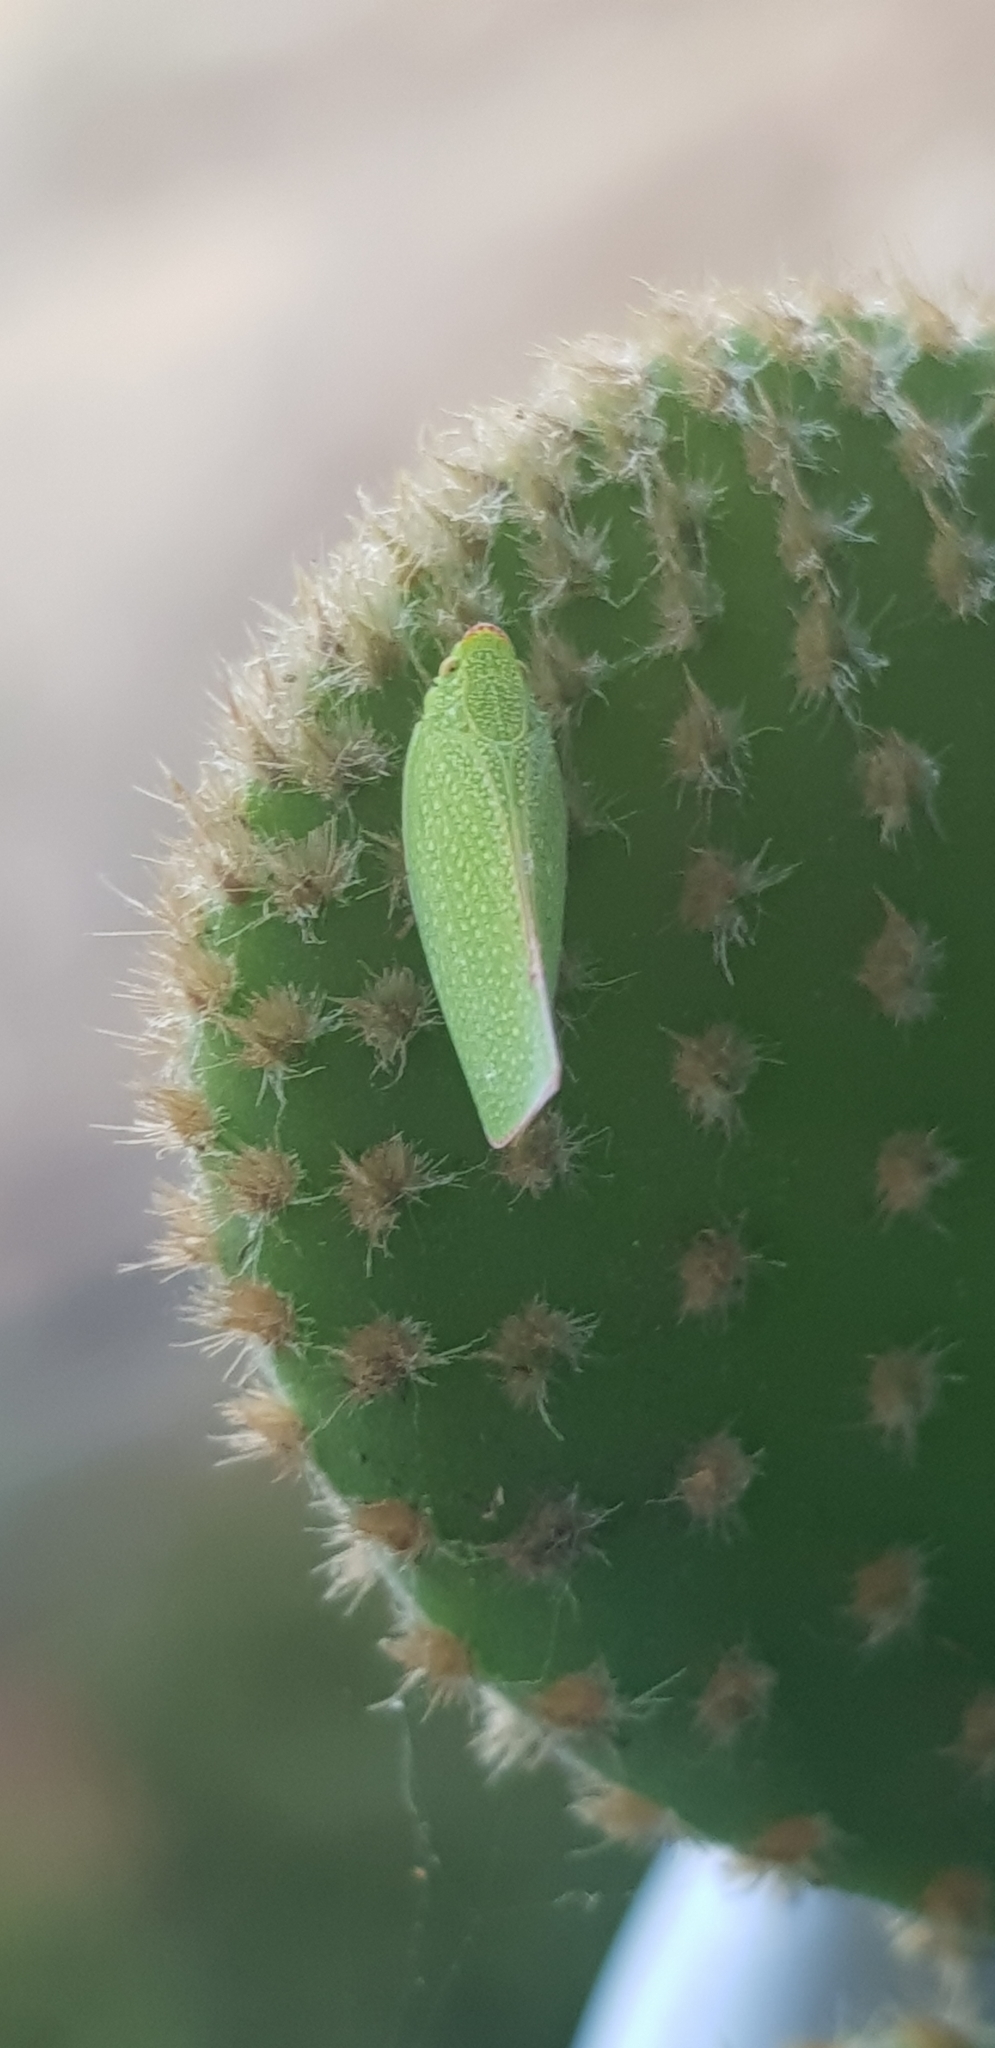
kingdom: Animalia
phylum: Arthropoda
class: Insecta
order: Hemiptera
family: Flatidae
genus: Siphanta
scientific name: Siphanta acuta
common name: Torpedo bug
